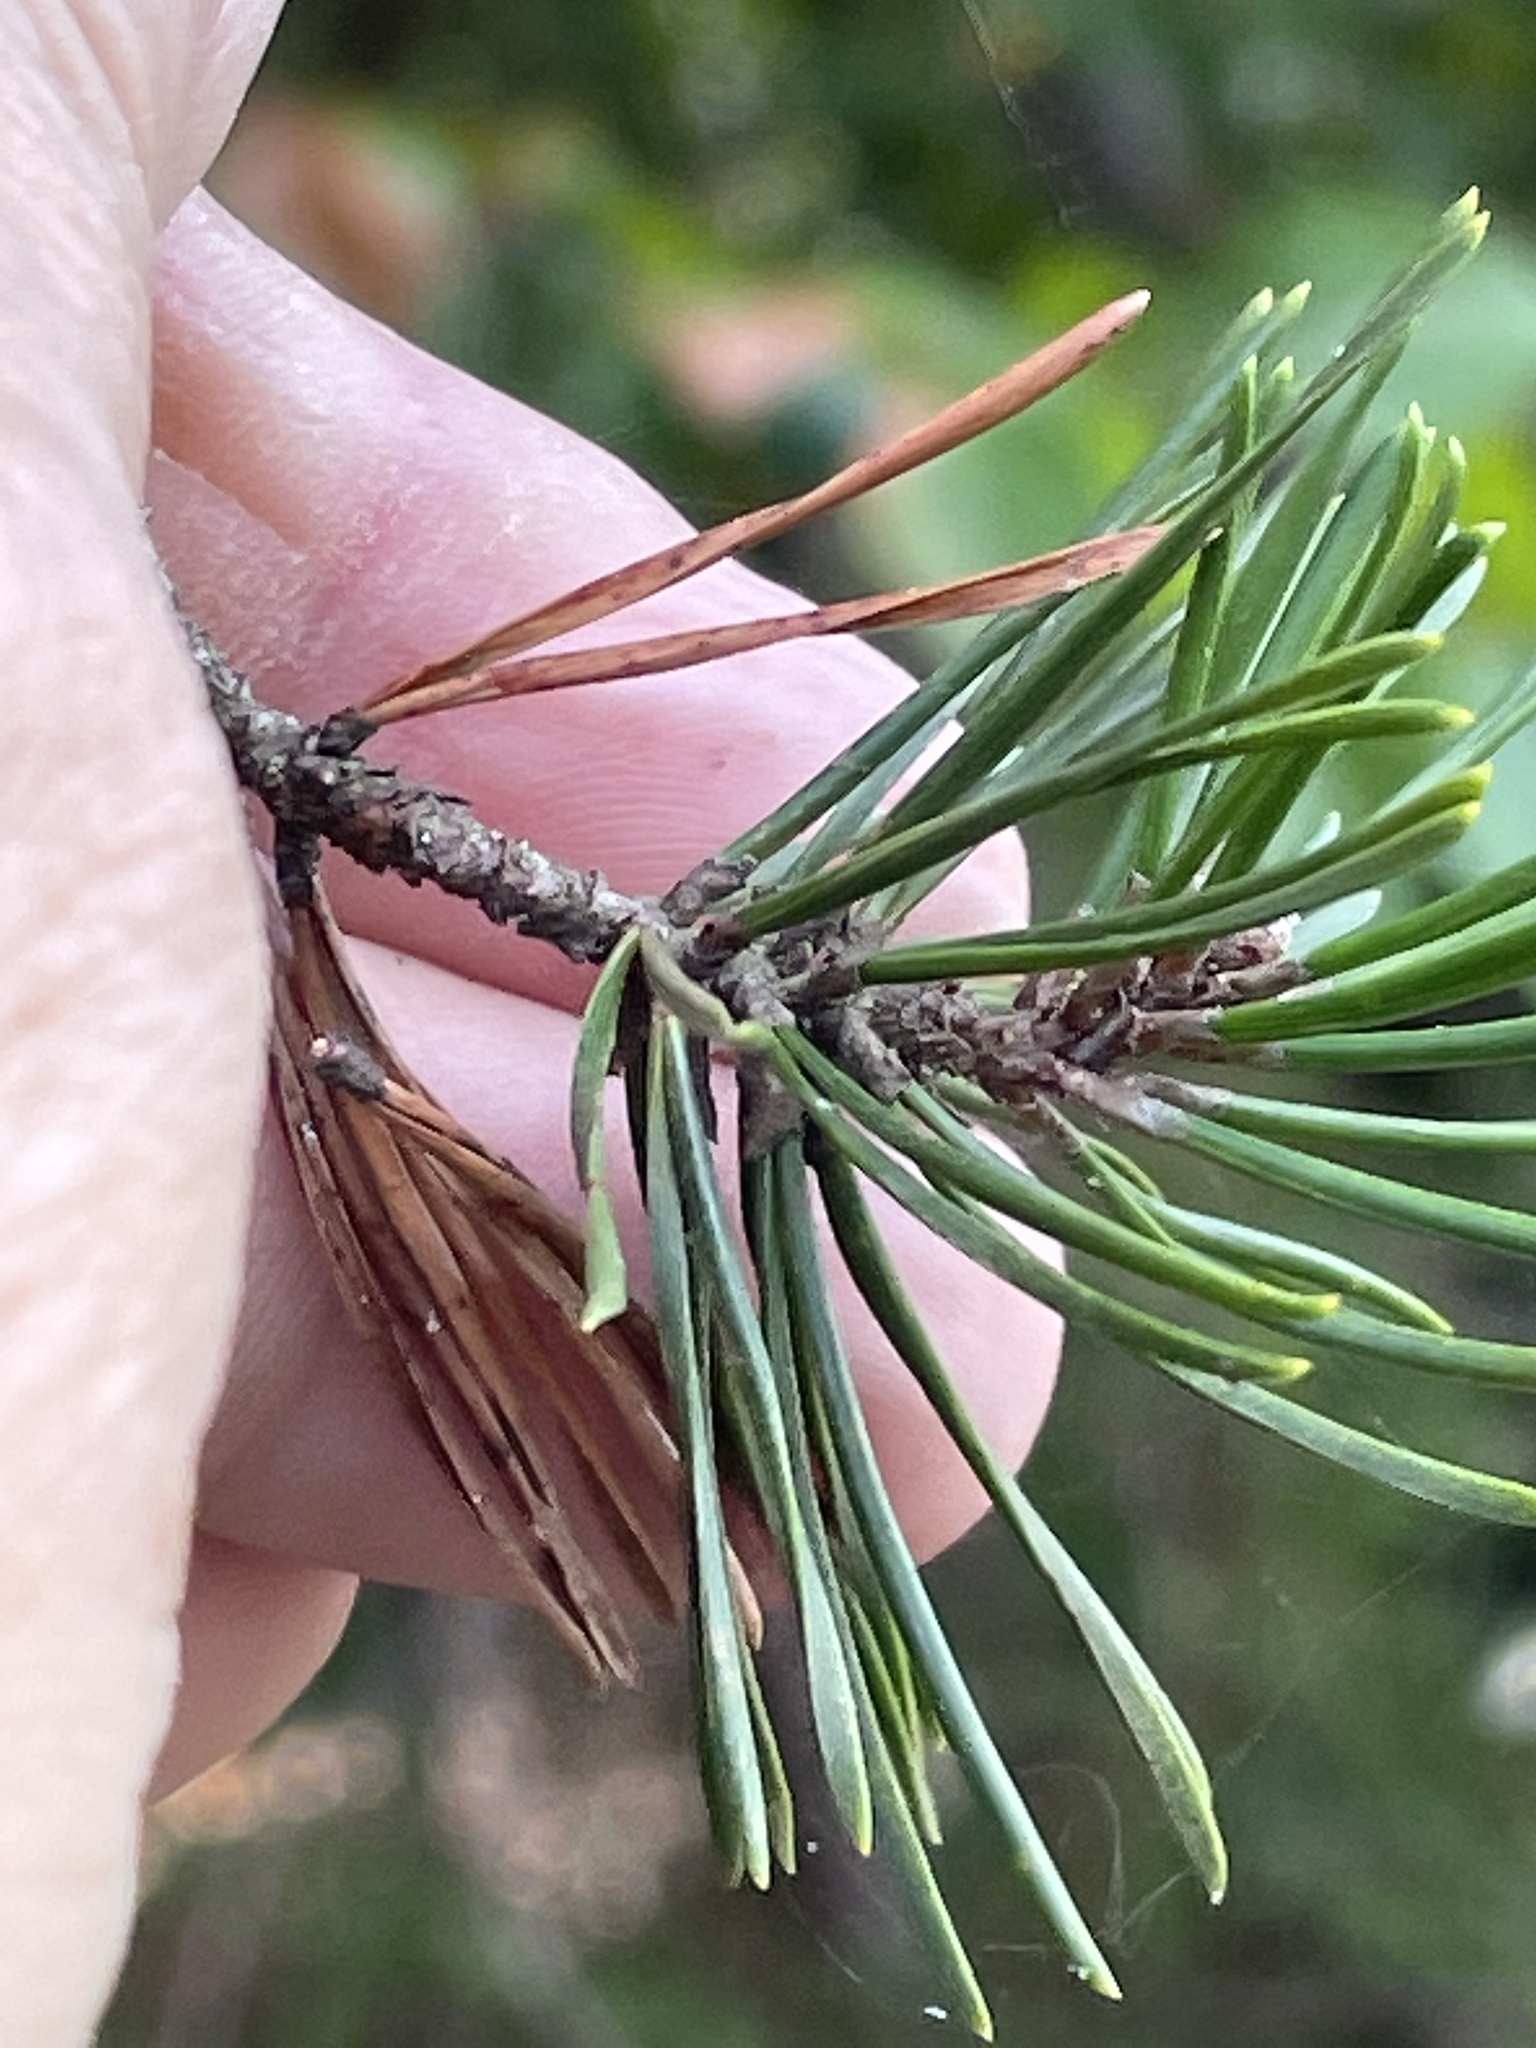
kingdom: Plantae
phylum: Tracheophyta
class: Pinopsida
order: Pinales
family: Pinaceae
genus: Pinus
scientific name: Pinus virginiana
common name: Scrub pine
